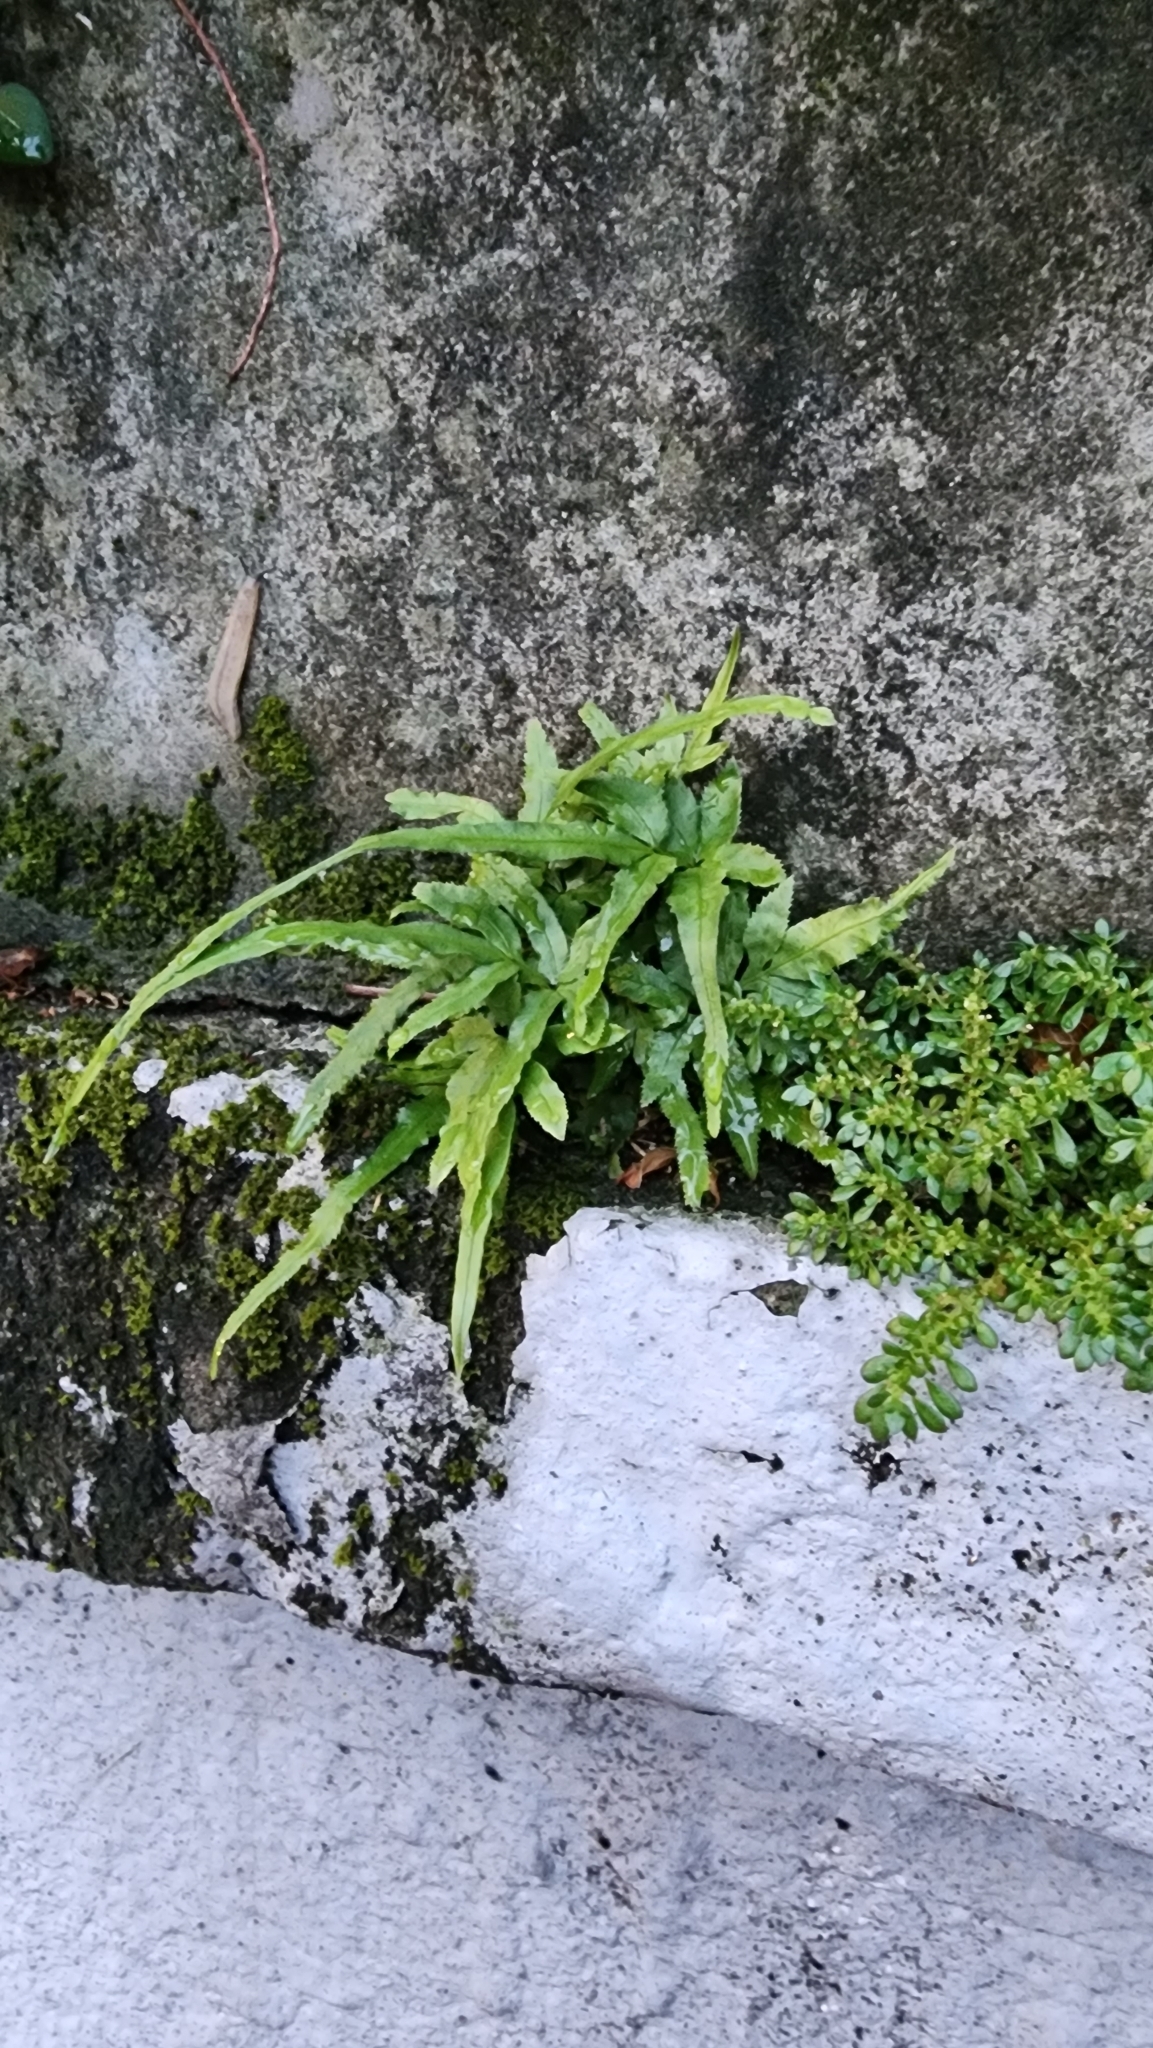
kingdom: Plantae
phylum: Tracheophyta
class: Polypodiopsida
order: Polypodiales
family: Pteridaceae
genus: Pteris
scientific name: Pteris multifida
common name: Spider brake
